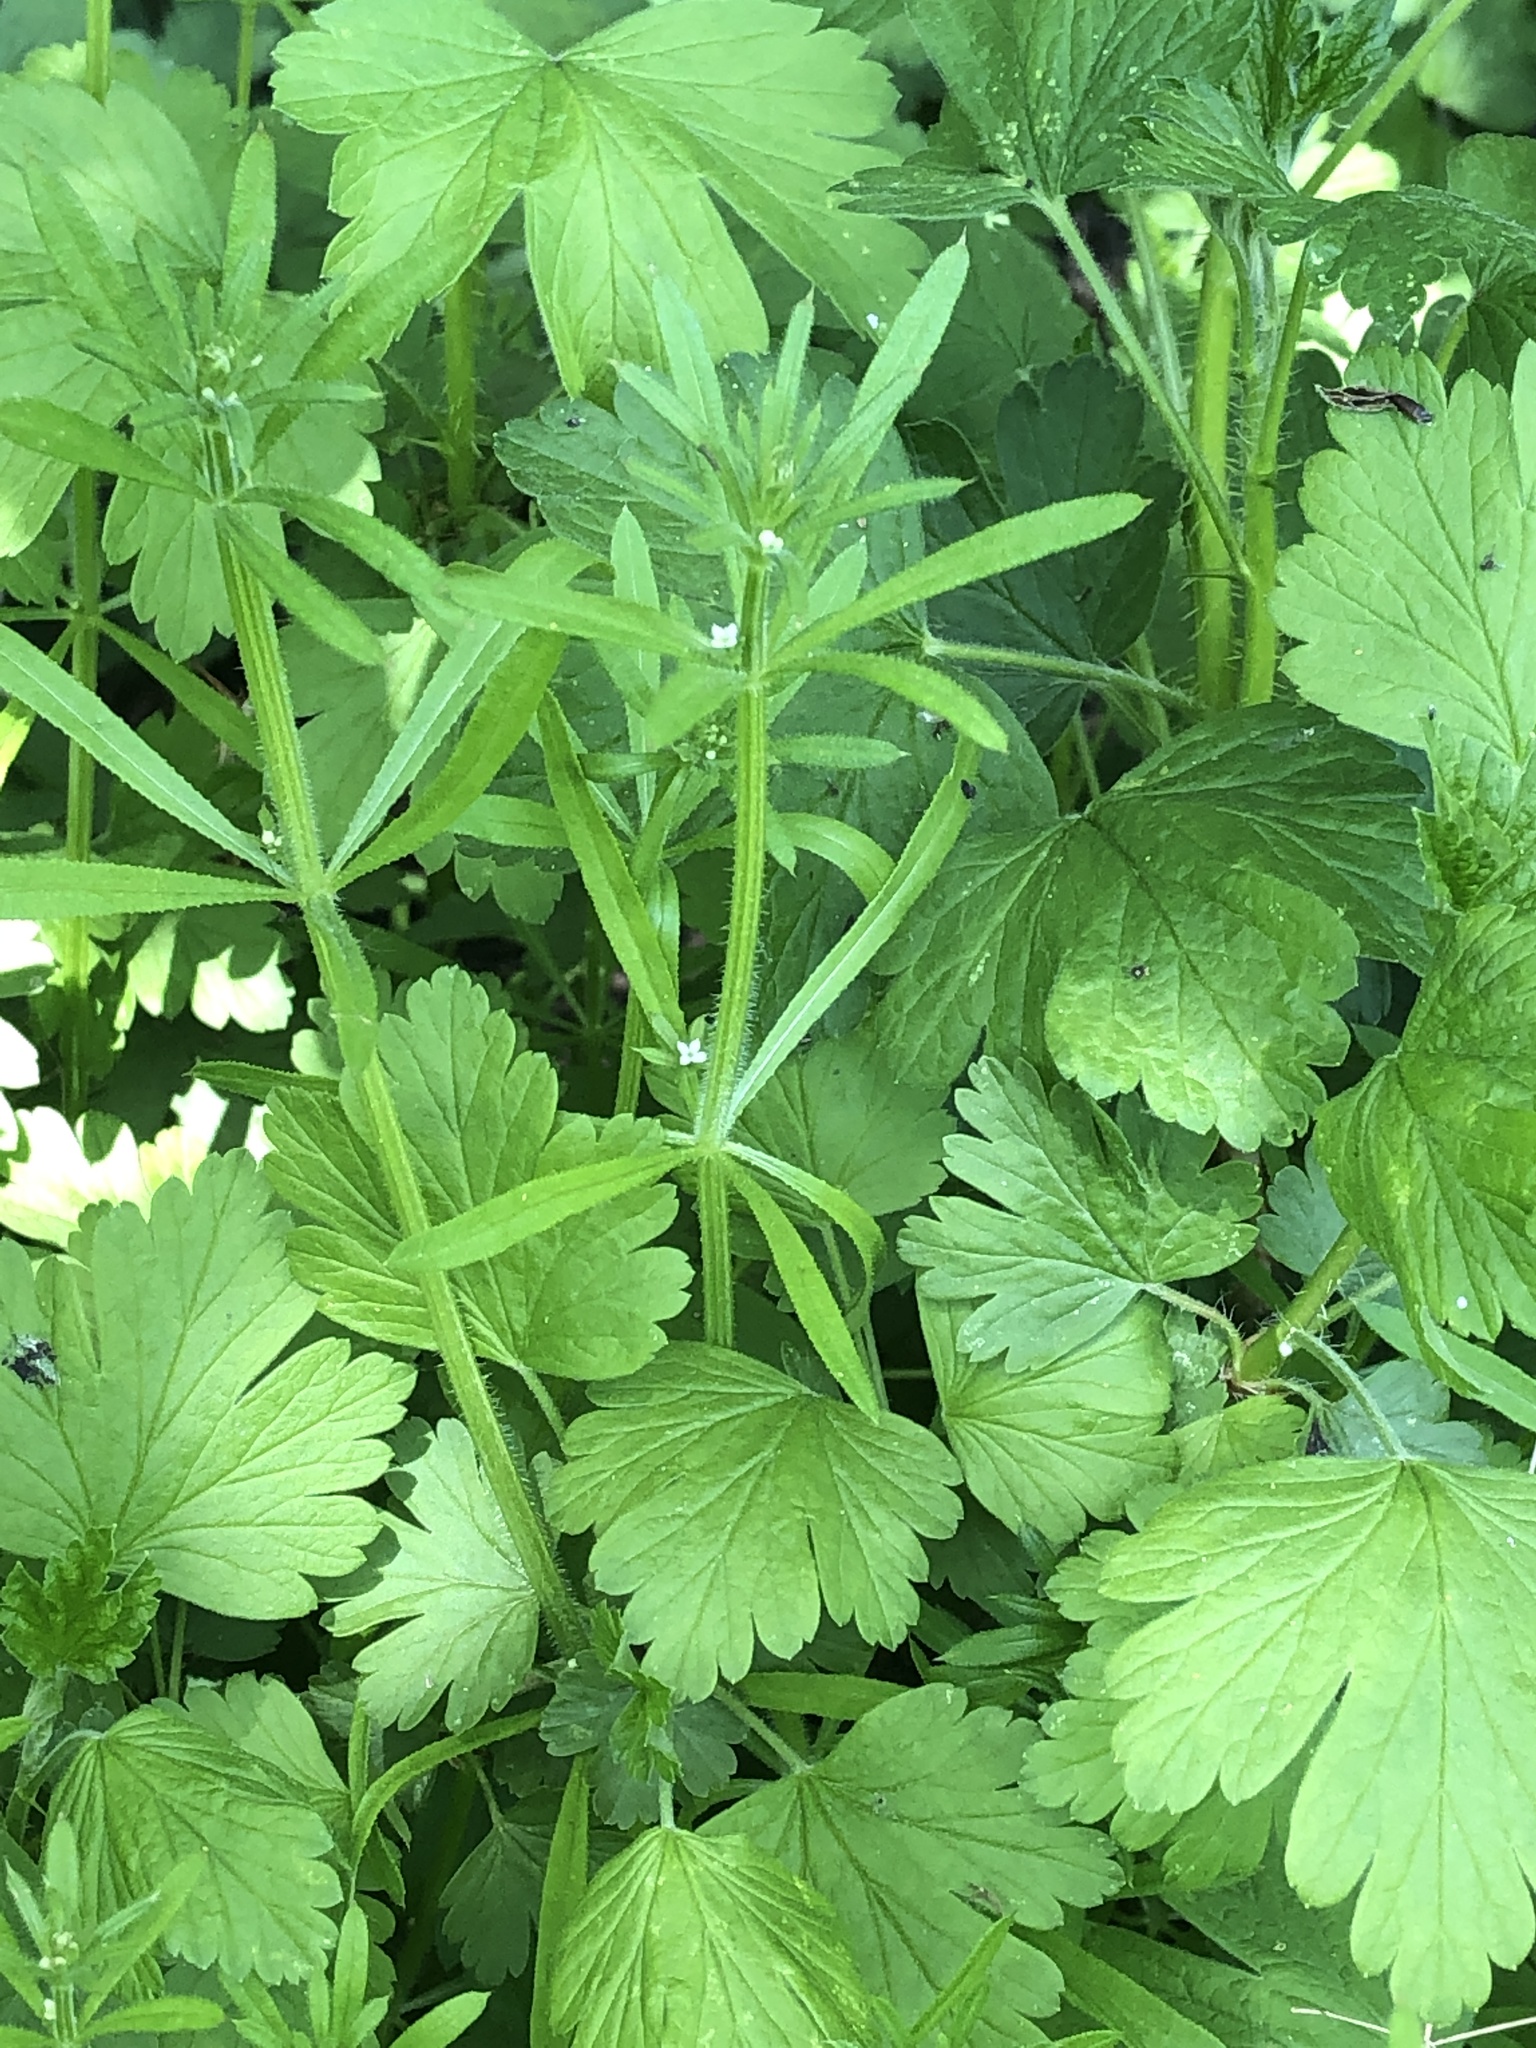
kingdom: Plantae
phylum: Tracheophyta
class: Magnoliopsida
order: Gentianales
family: Rubiaceae
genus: Galium
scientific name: Galium aparine
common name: Cleavers
